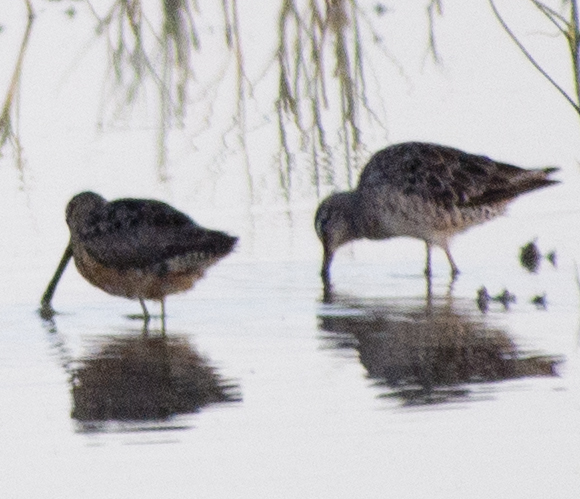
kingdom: Animalia
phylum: Chordata
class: Aves
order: Charadriiformes
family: Scolopacidae
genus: Limnodromus
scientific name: Limnodromus scolopaceus
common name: Long-billed dowitcher
